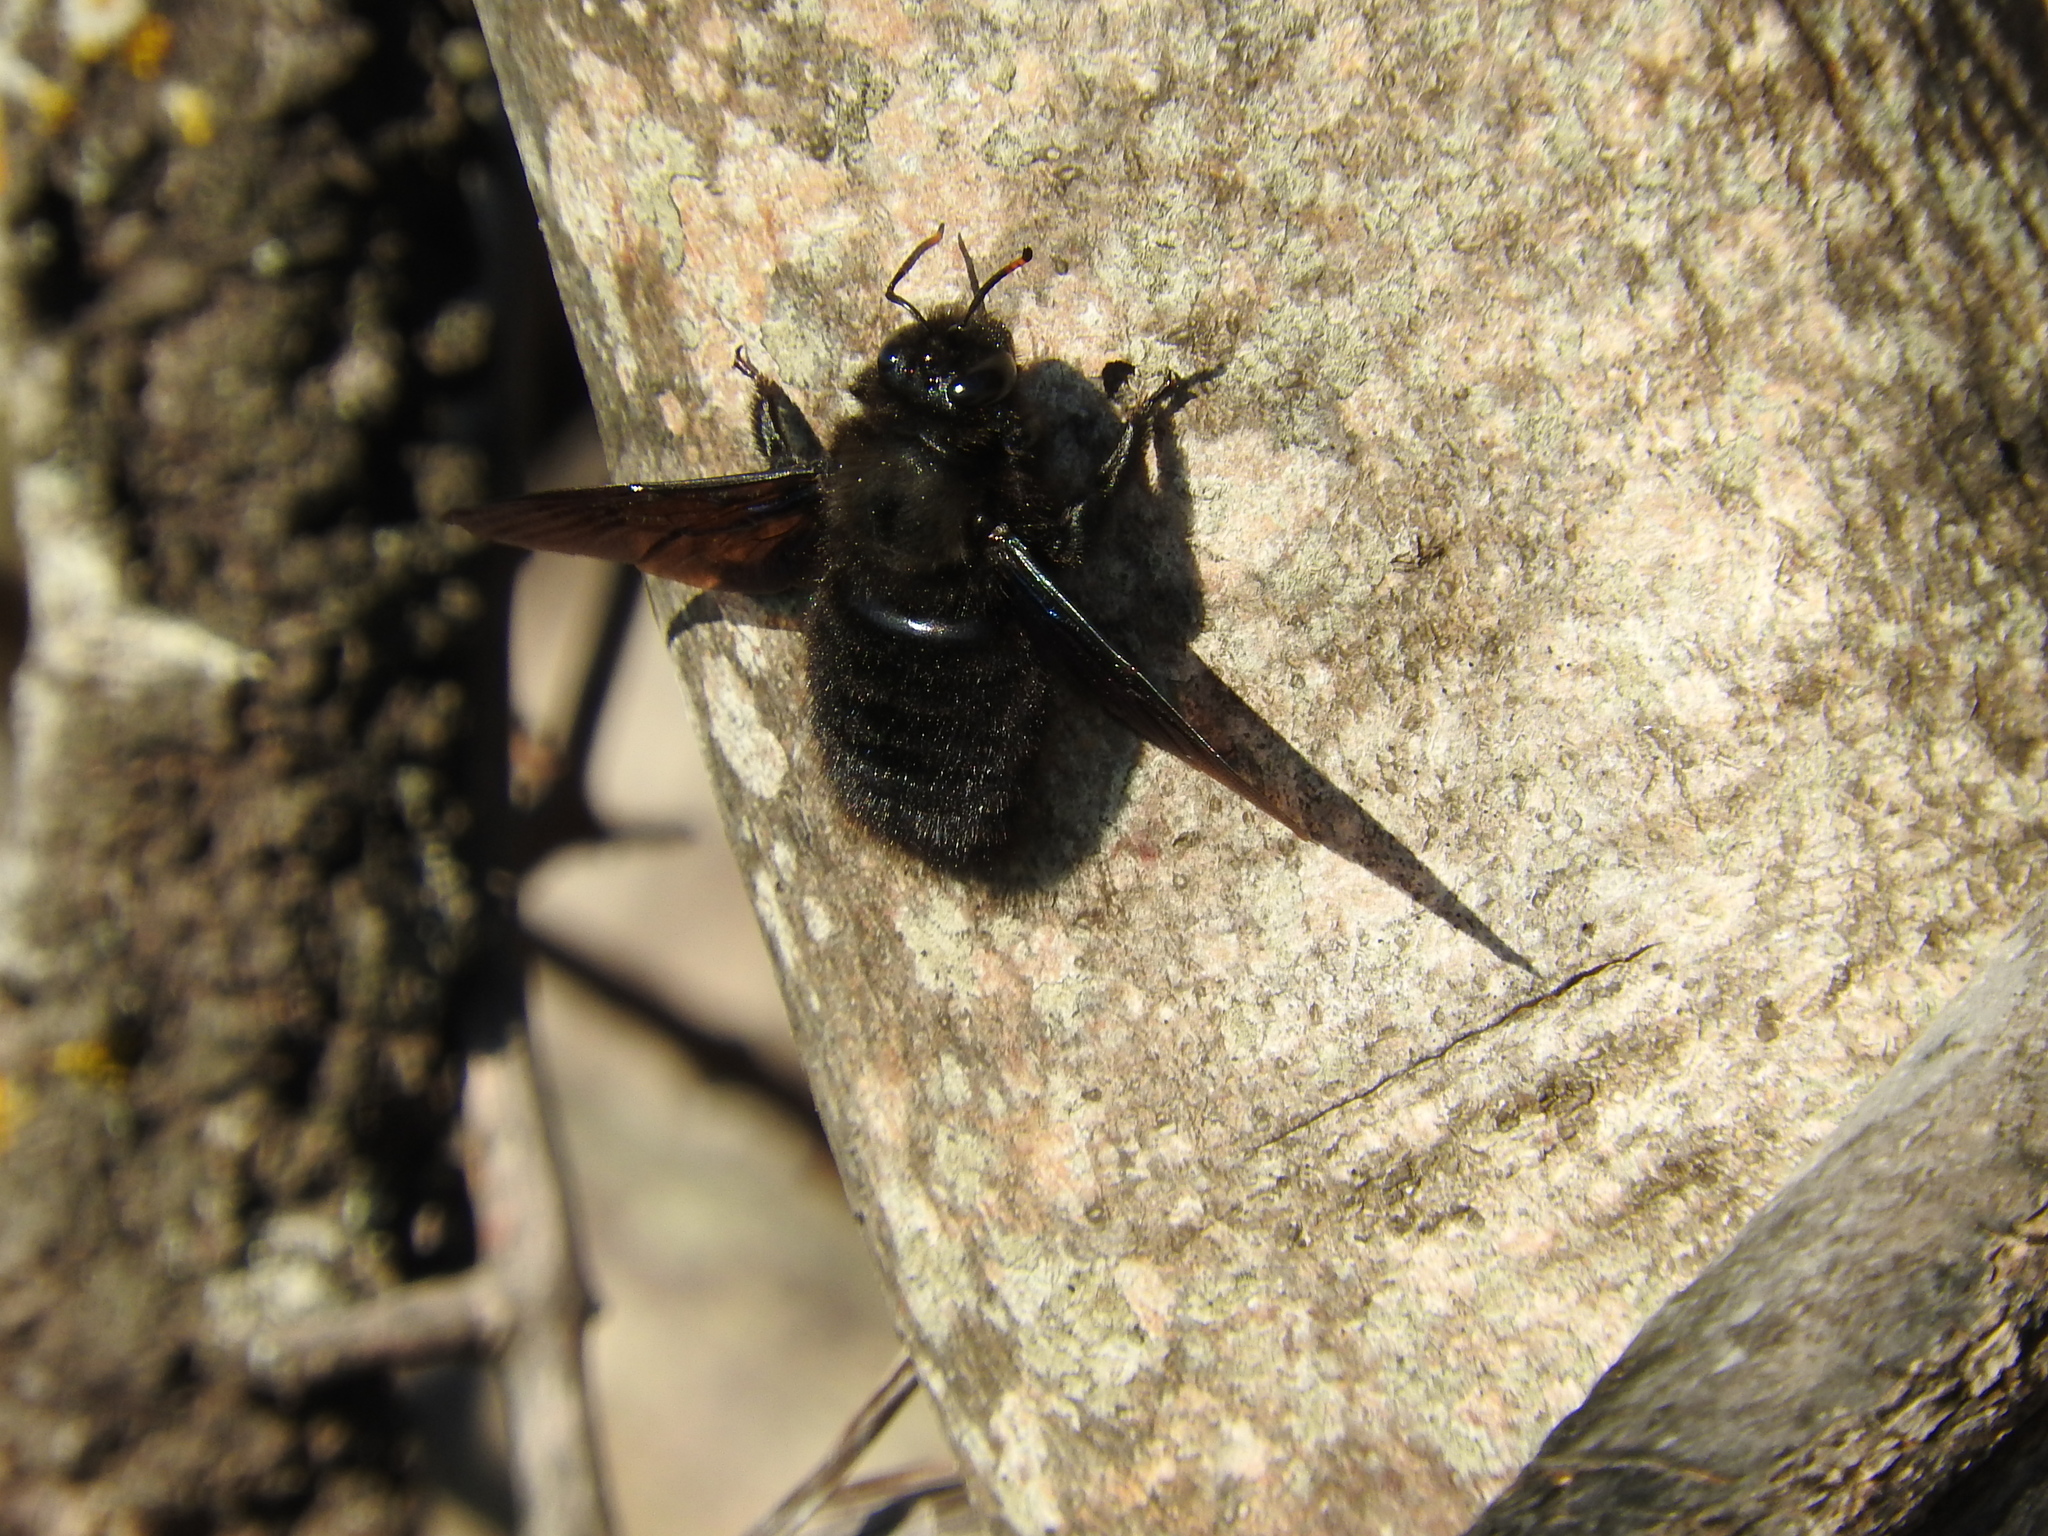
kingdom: Animalia
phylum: Arthropoda
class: Insecta
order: Hymenoptera
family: Apidae
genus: Xylocopa
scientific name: Xylocopa violacea
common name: Violet carpenter bee
